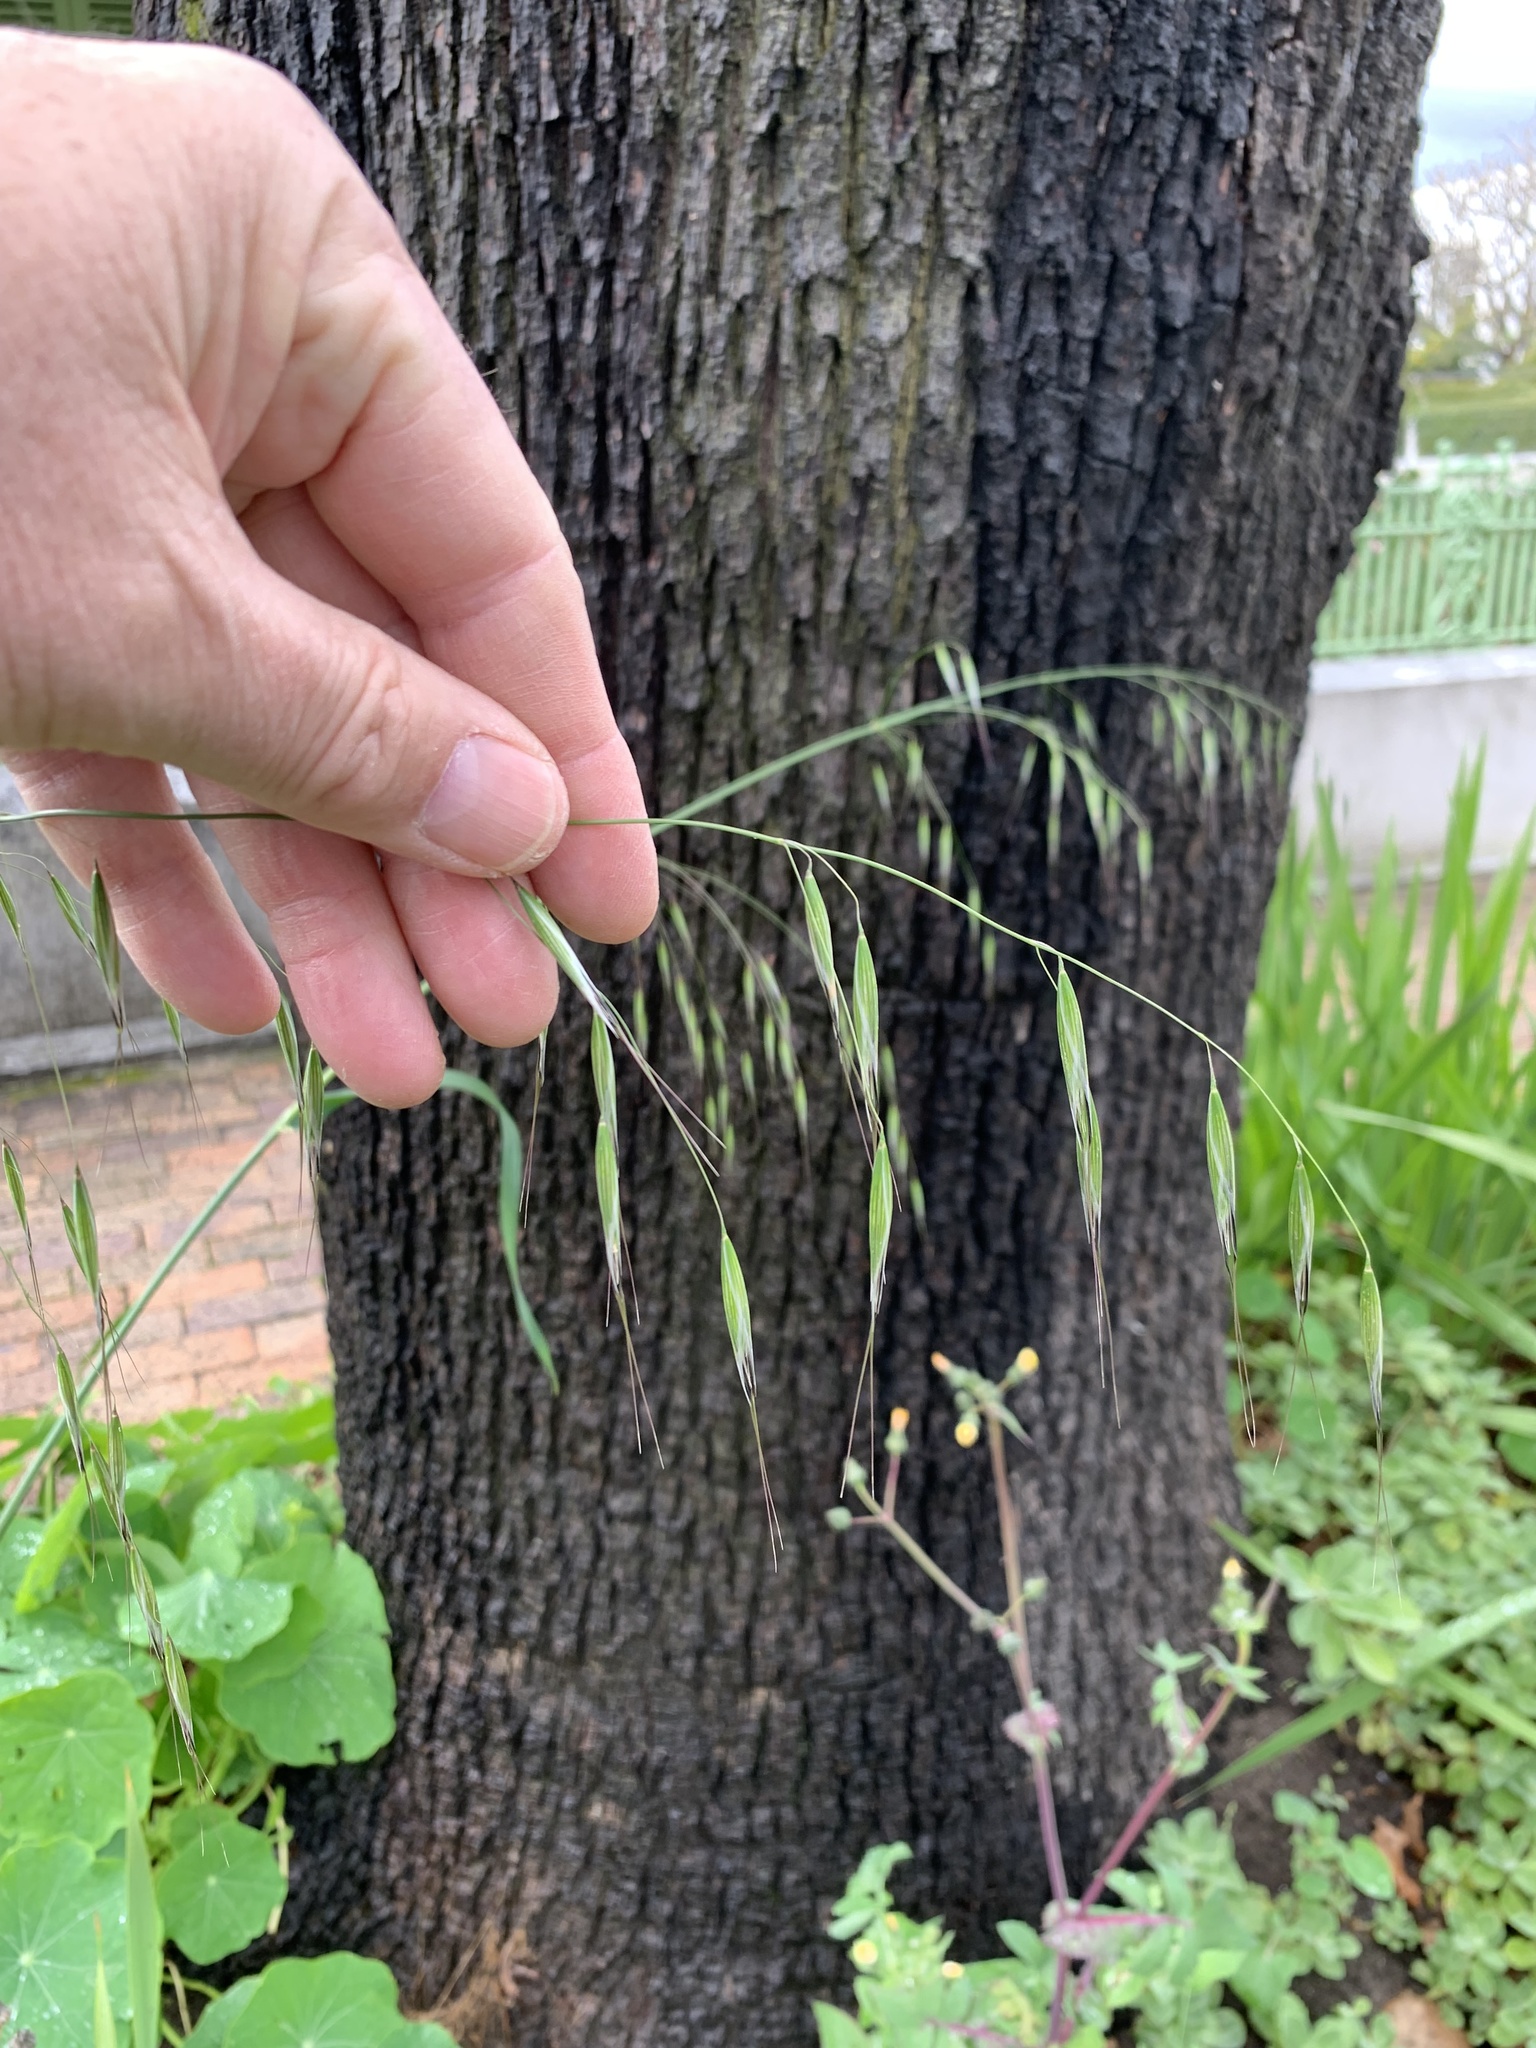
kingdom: Plantae
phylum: Tracheophyta
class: Liliopsida
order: Poales
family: Poaceae
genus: Avena
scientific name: Avena fatua
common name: Wild oat
